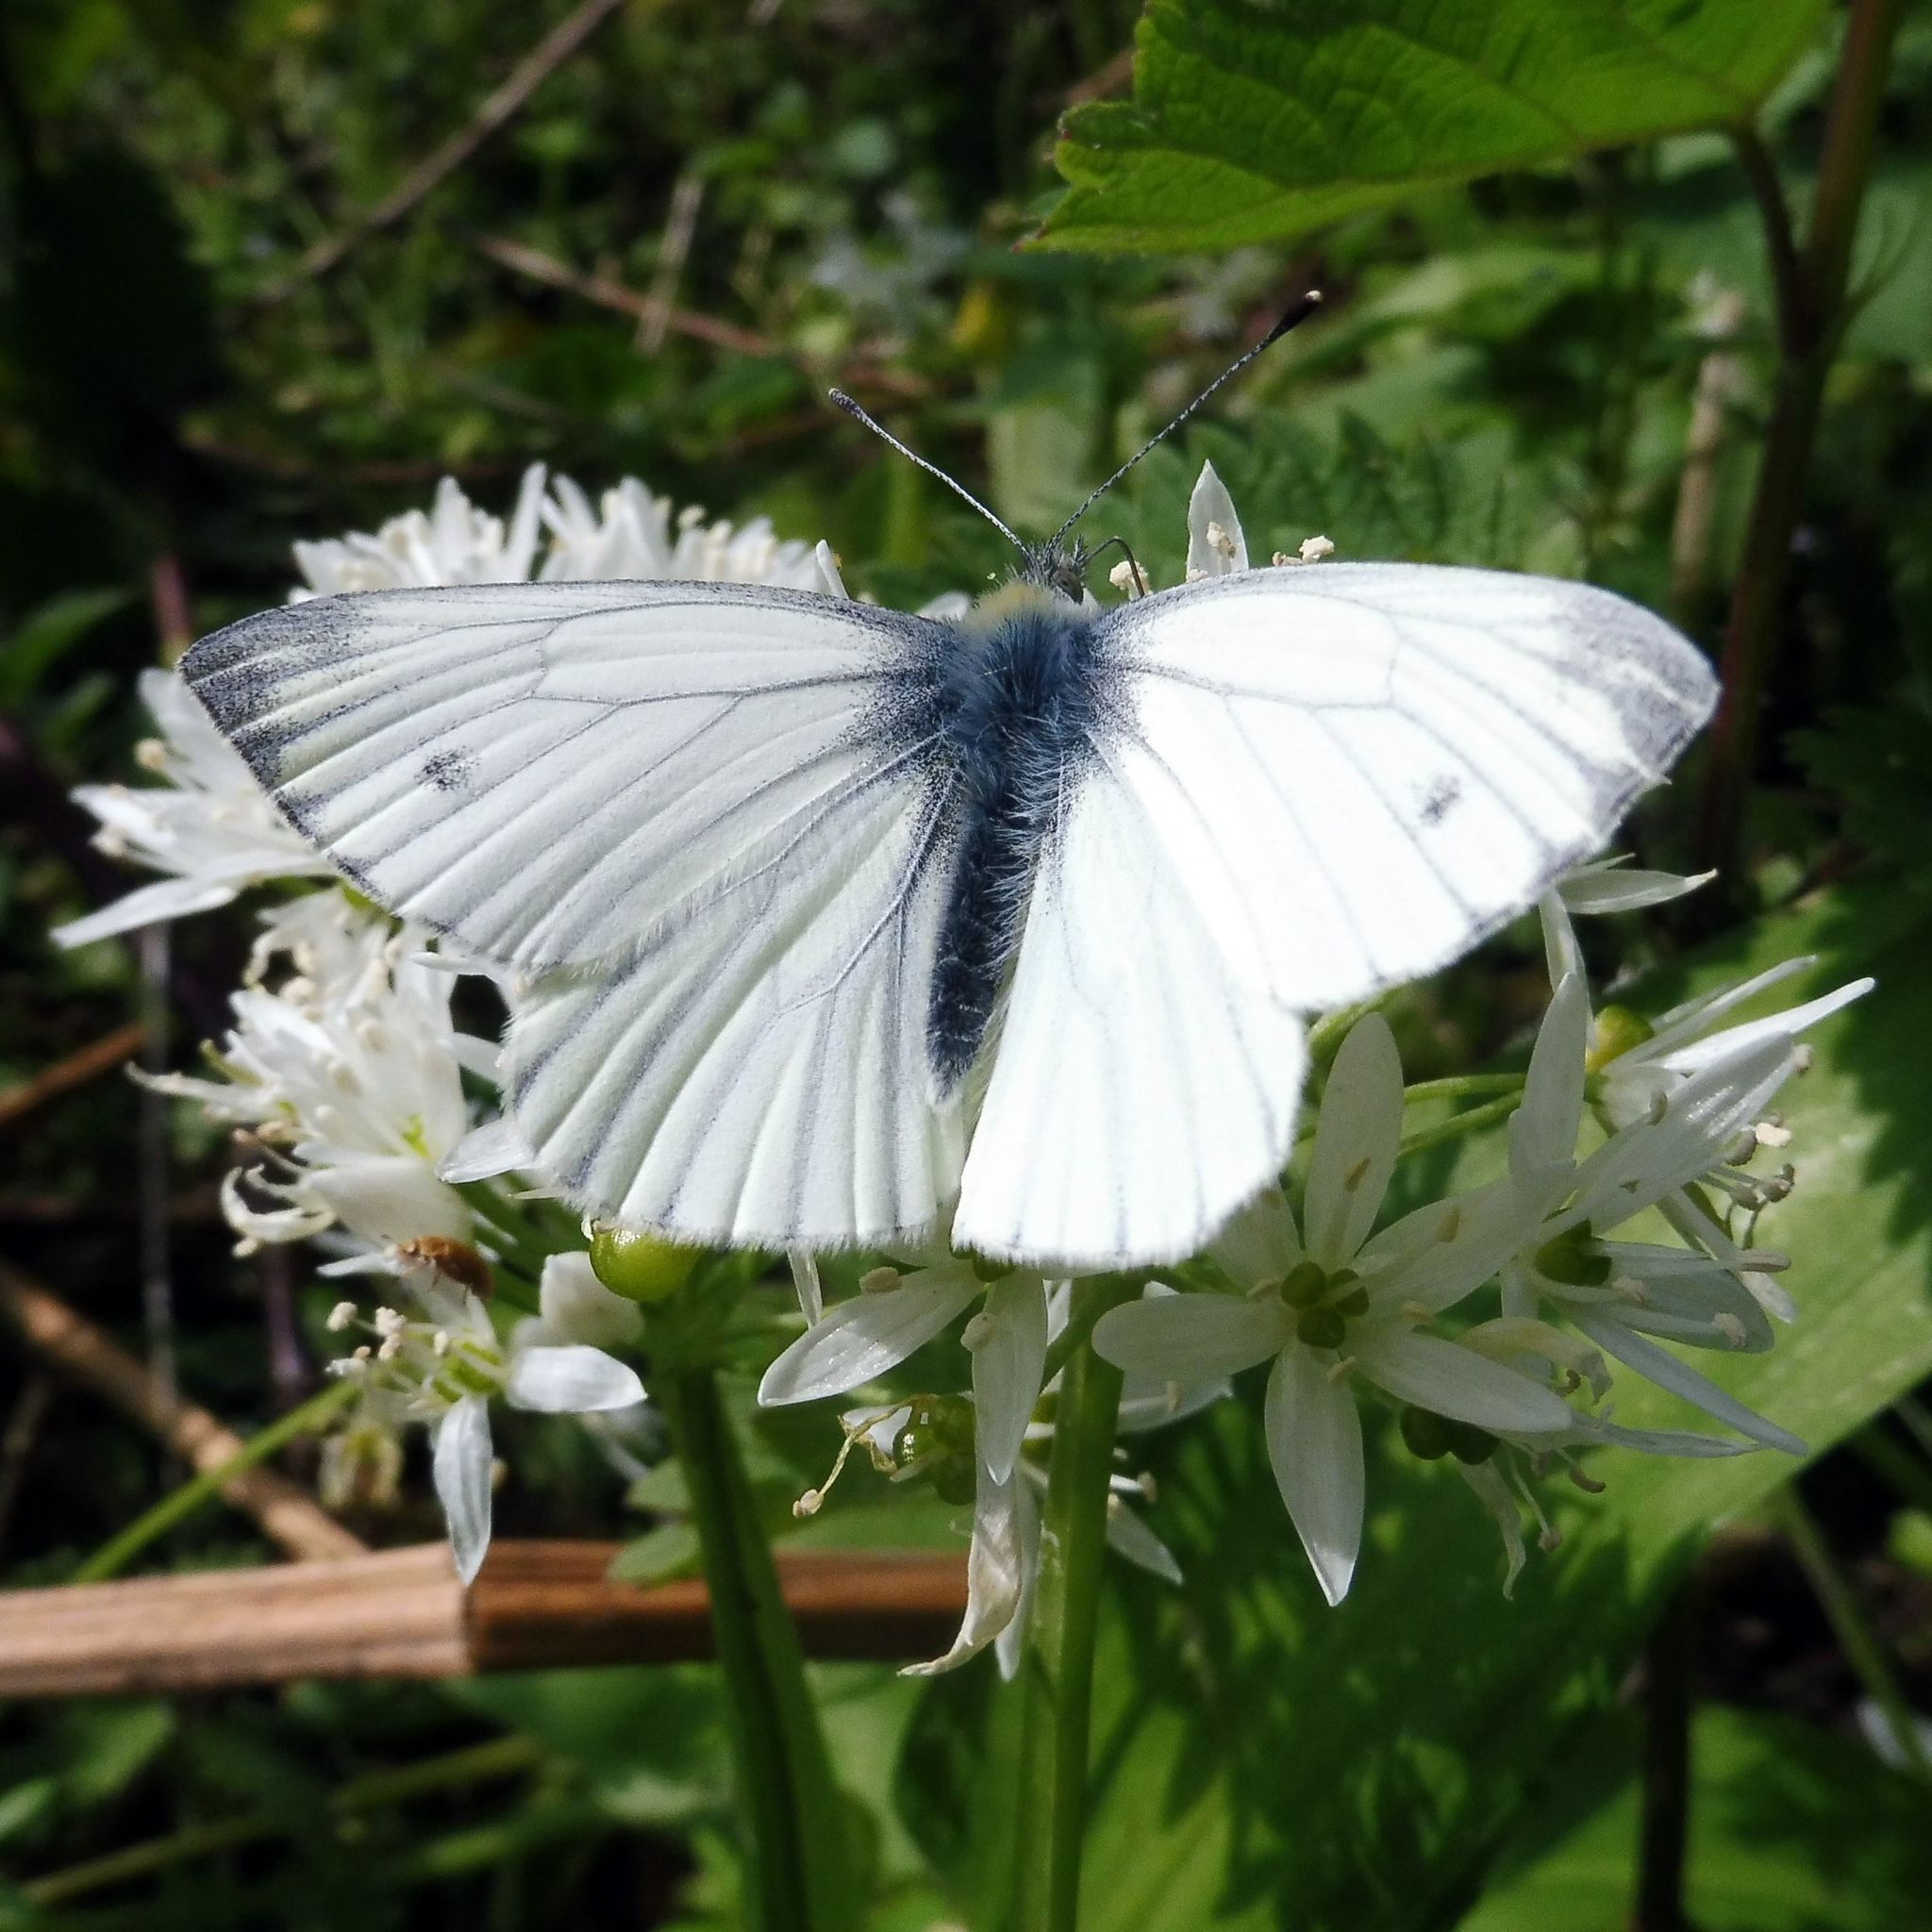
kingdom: Animalia
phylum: Arthropoda
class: Insecta
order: Lepidoptera
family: Pieridae
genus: Pieris
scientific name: Pieris napi
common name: Green-veined white
